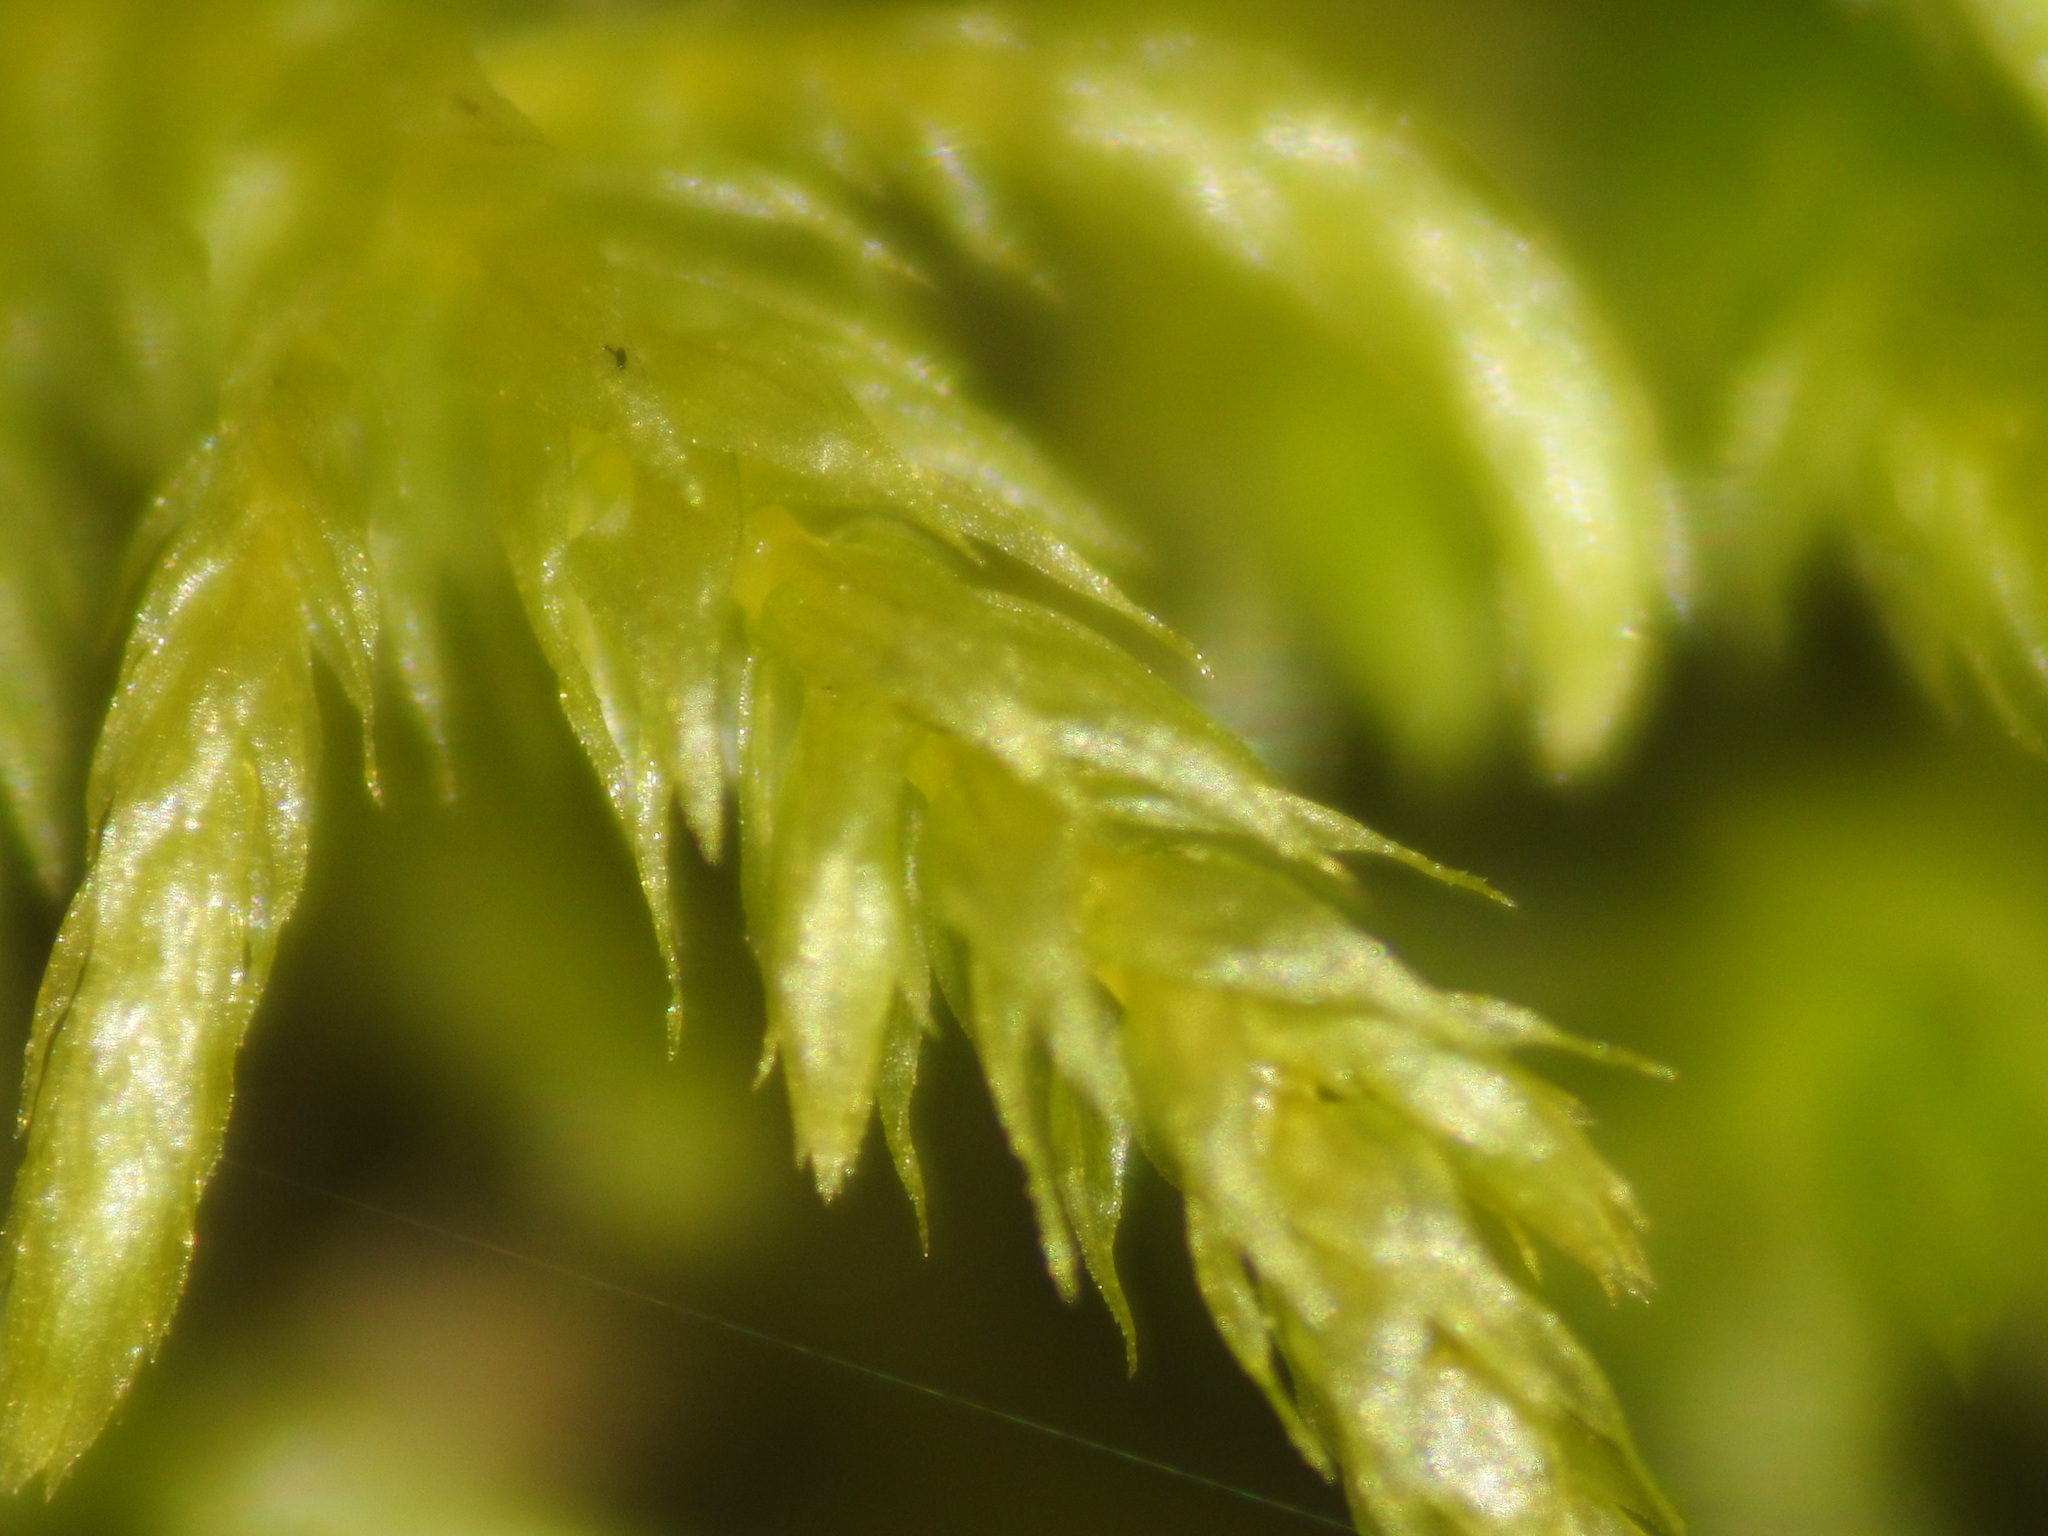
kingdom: Plantae
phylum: Bryophyta
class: Bryopsida
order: Hypnales
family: Brachytheciaceae
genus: Brachythecium
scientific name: Brachythecium rutabulum
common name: Rough-stalked feather-moss
